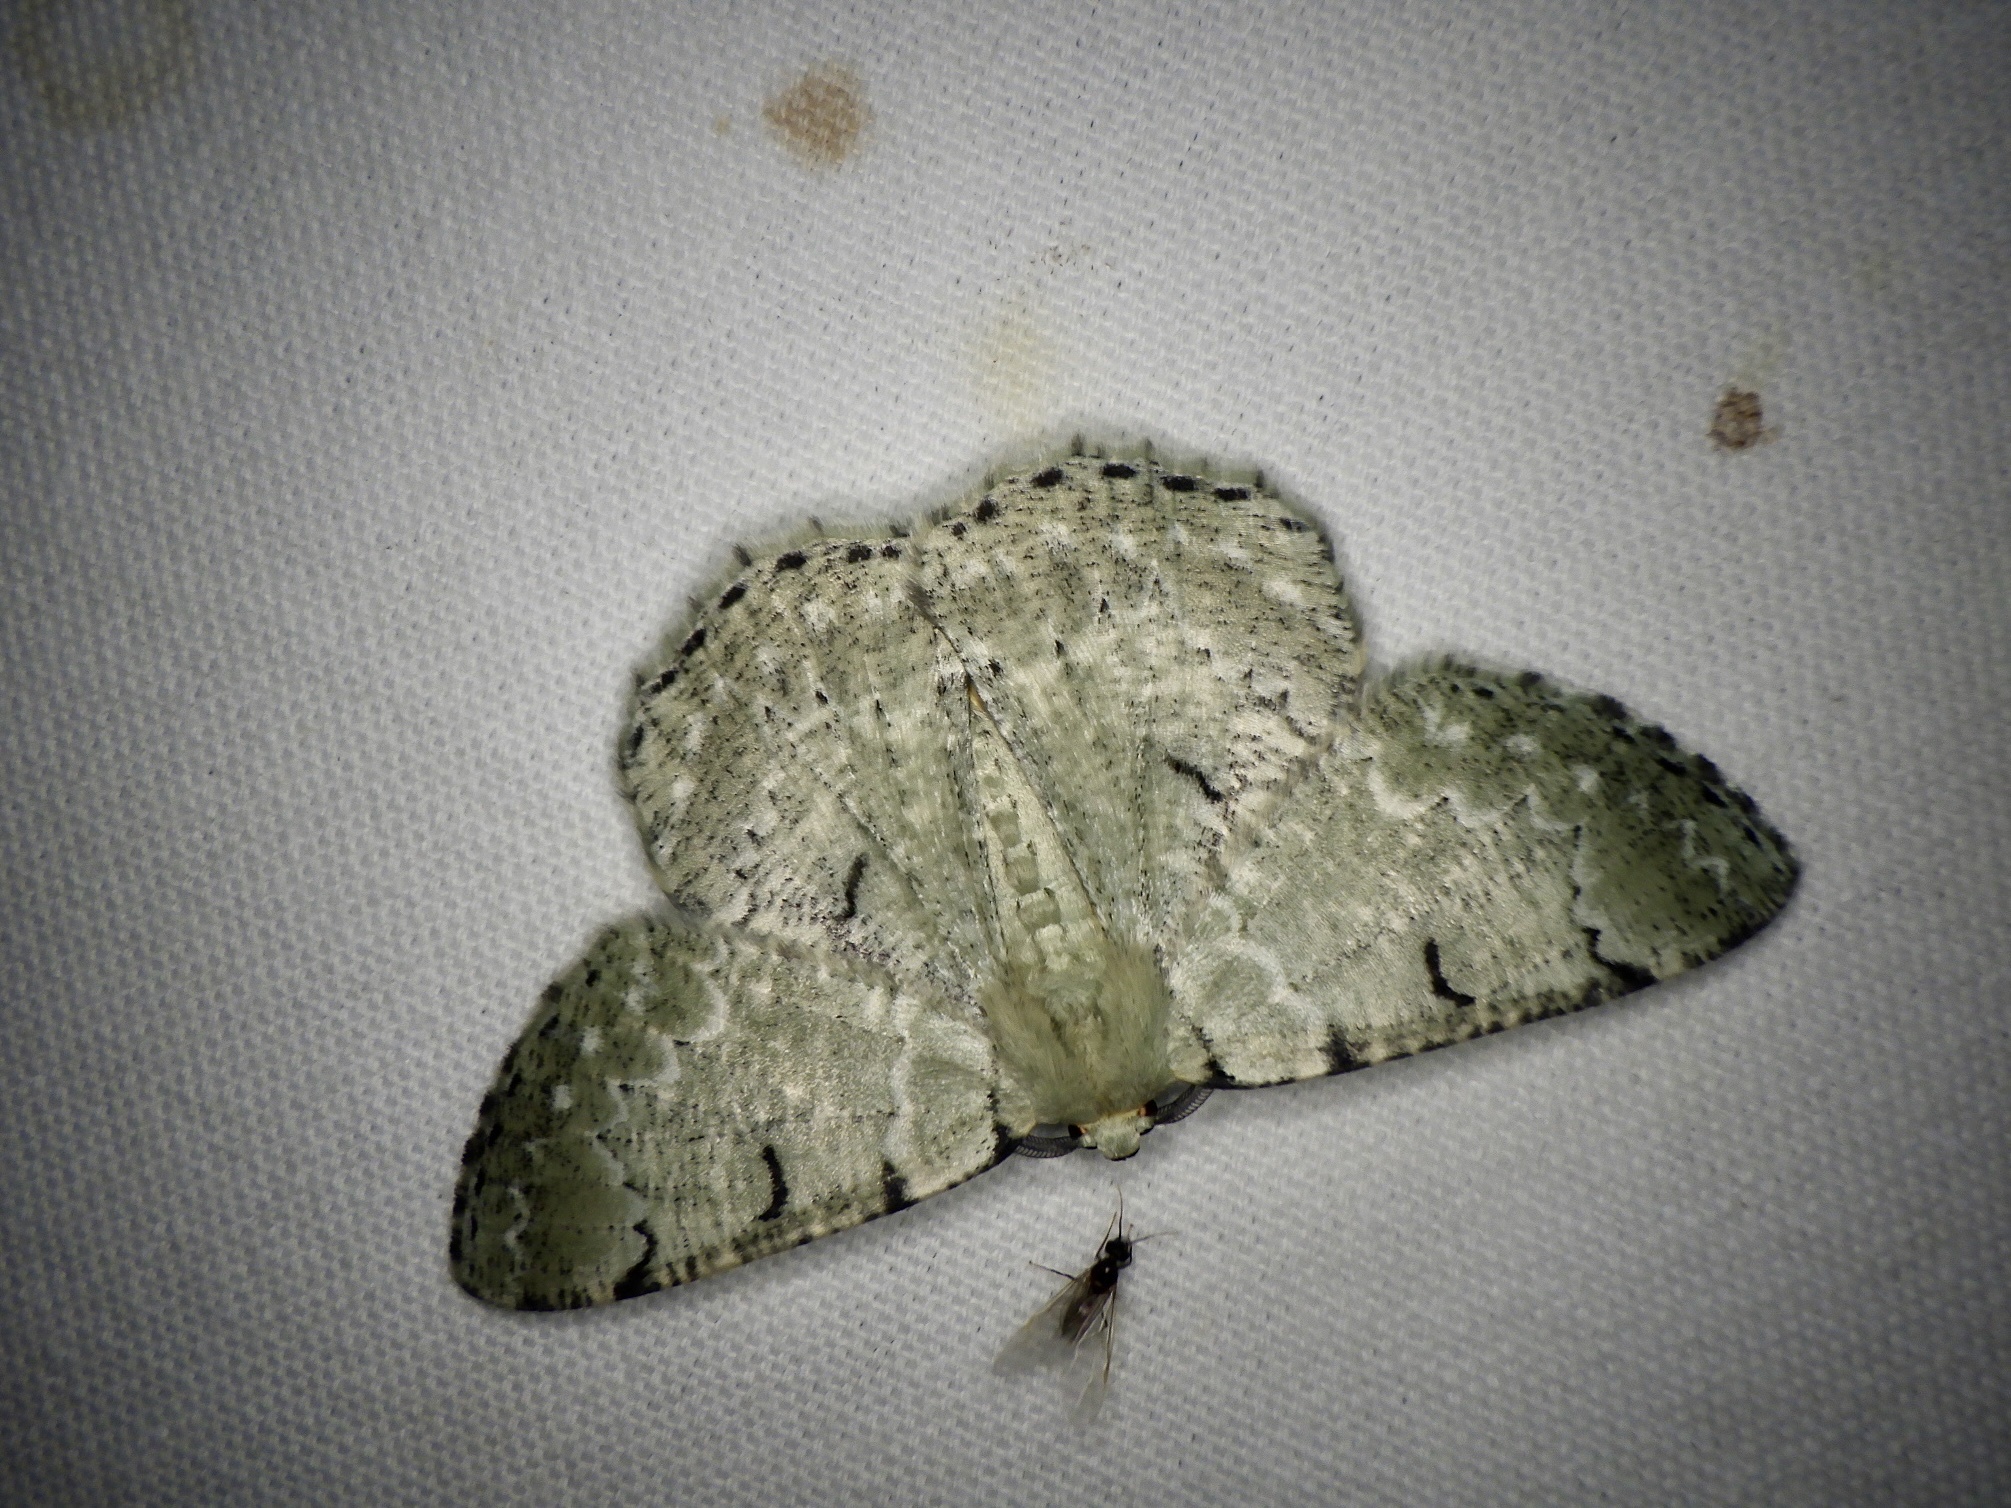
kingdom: Animalia
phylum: Arthropoda
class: Insecta
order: Lepidoptera
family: Geometridae
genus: Pachista
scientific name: Pachista superans
